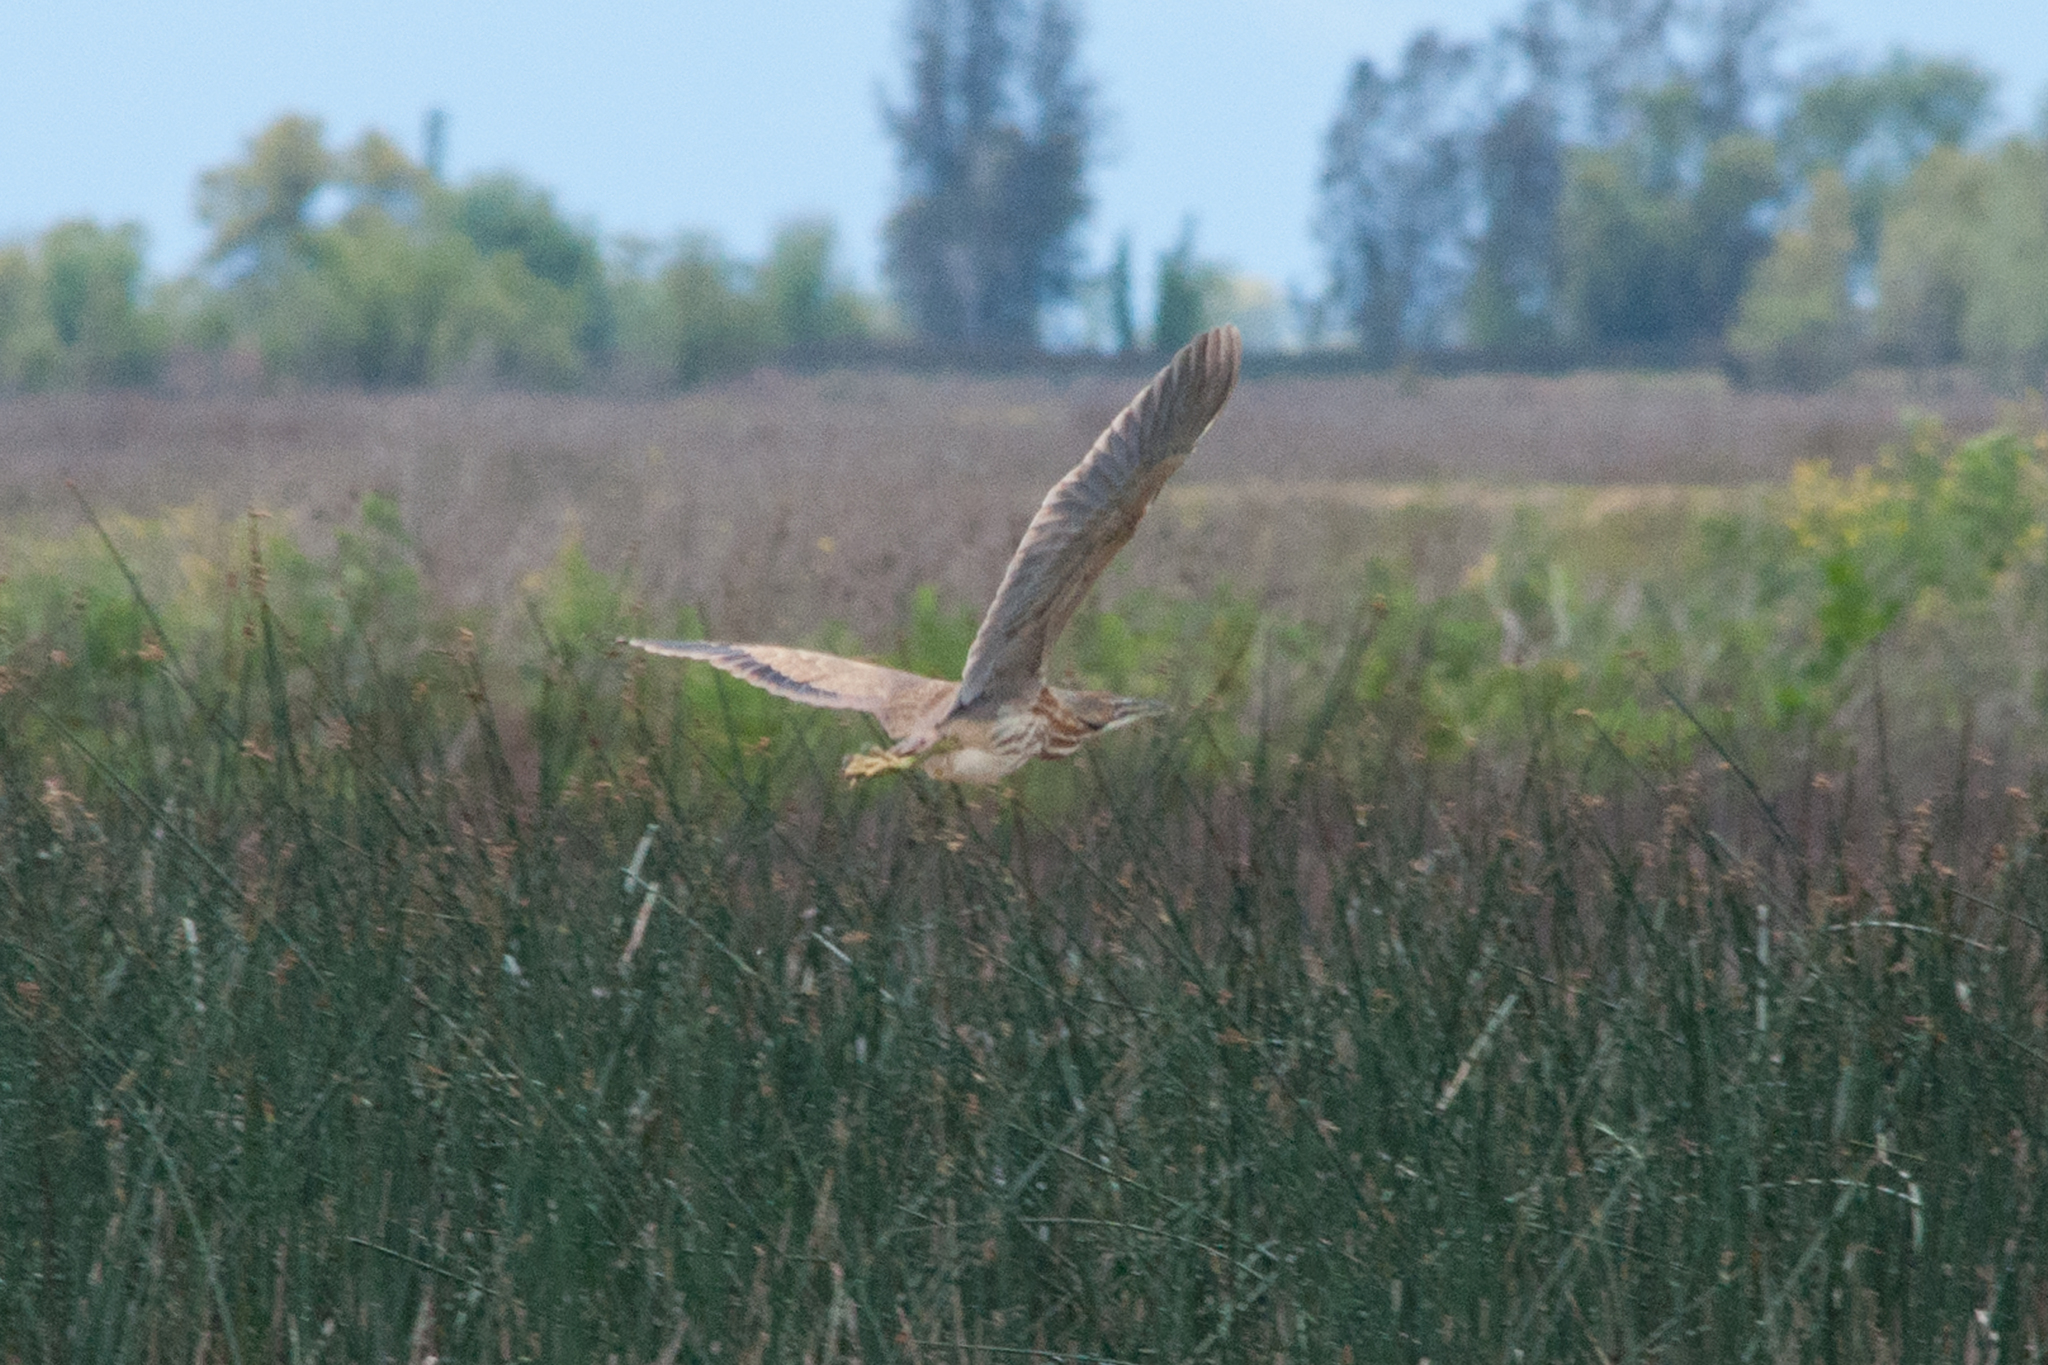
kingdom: Animalia
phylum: Chordata
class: Aves
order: Pelecaniformes
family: Ardeidae
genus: Botaurus
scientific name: Botaurus lentiginosus
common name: American bittern
